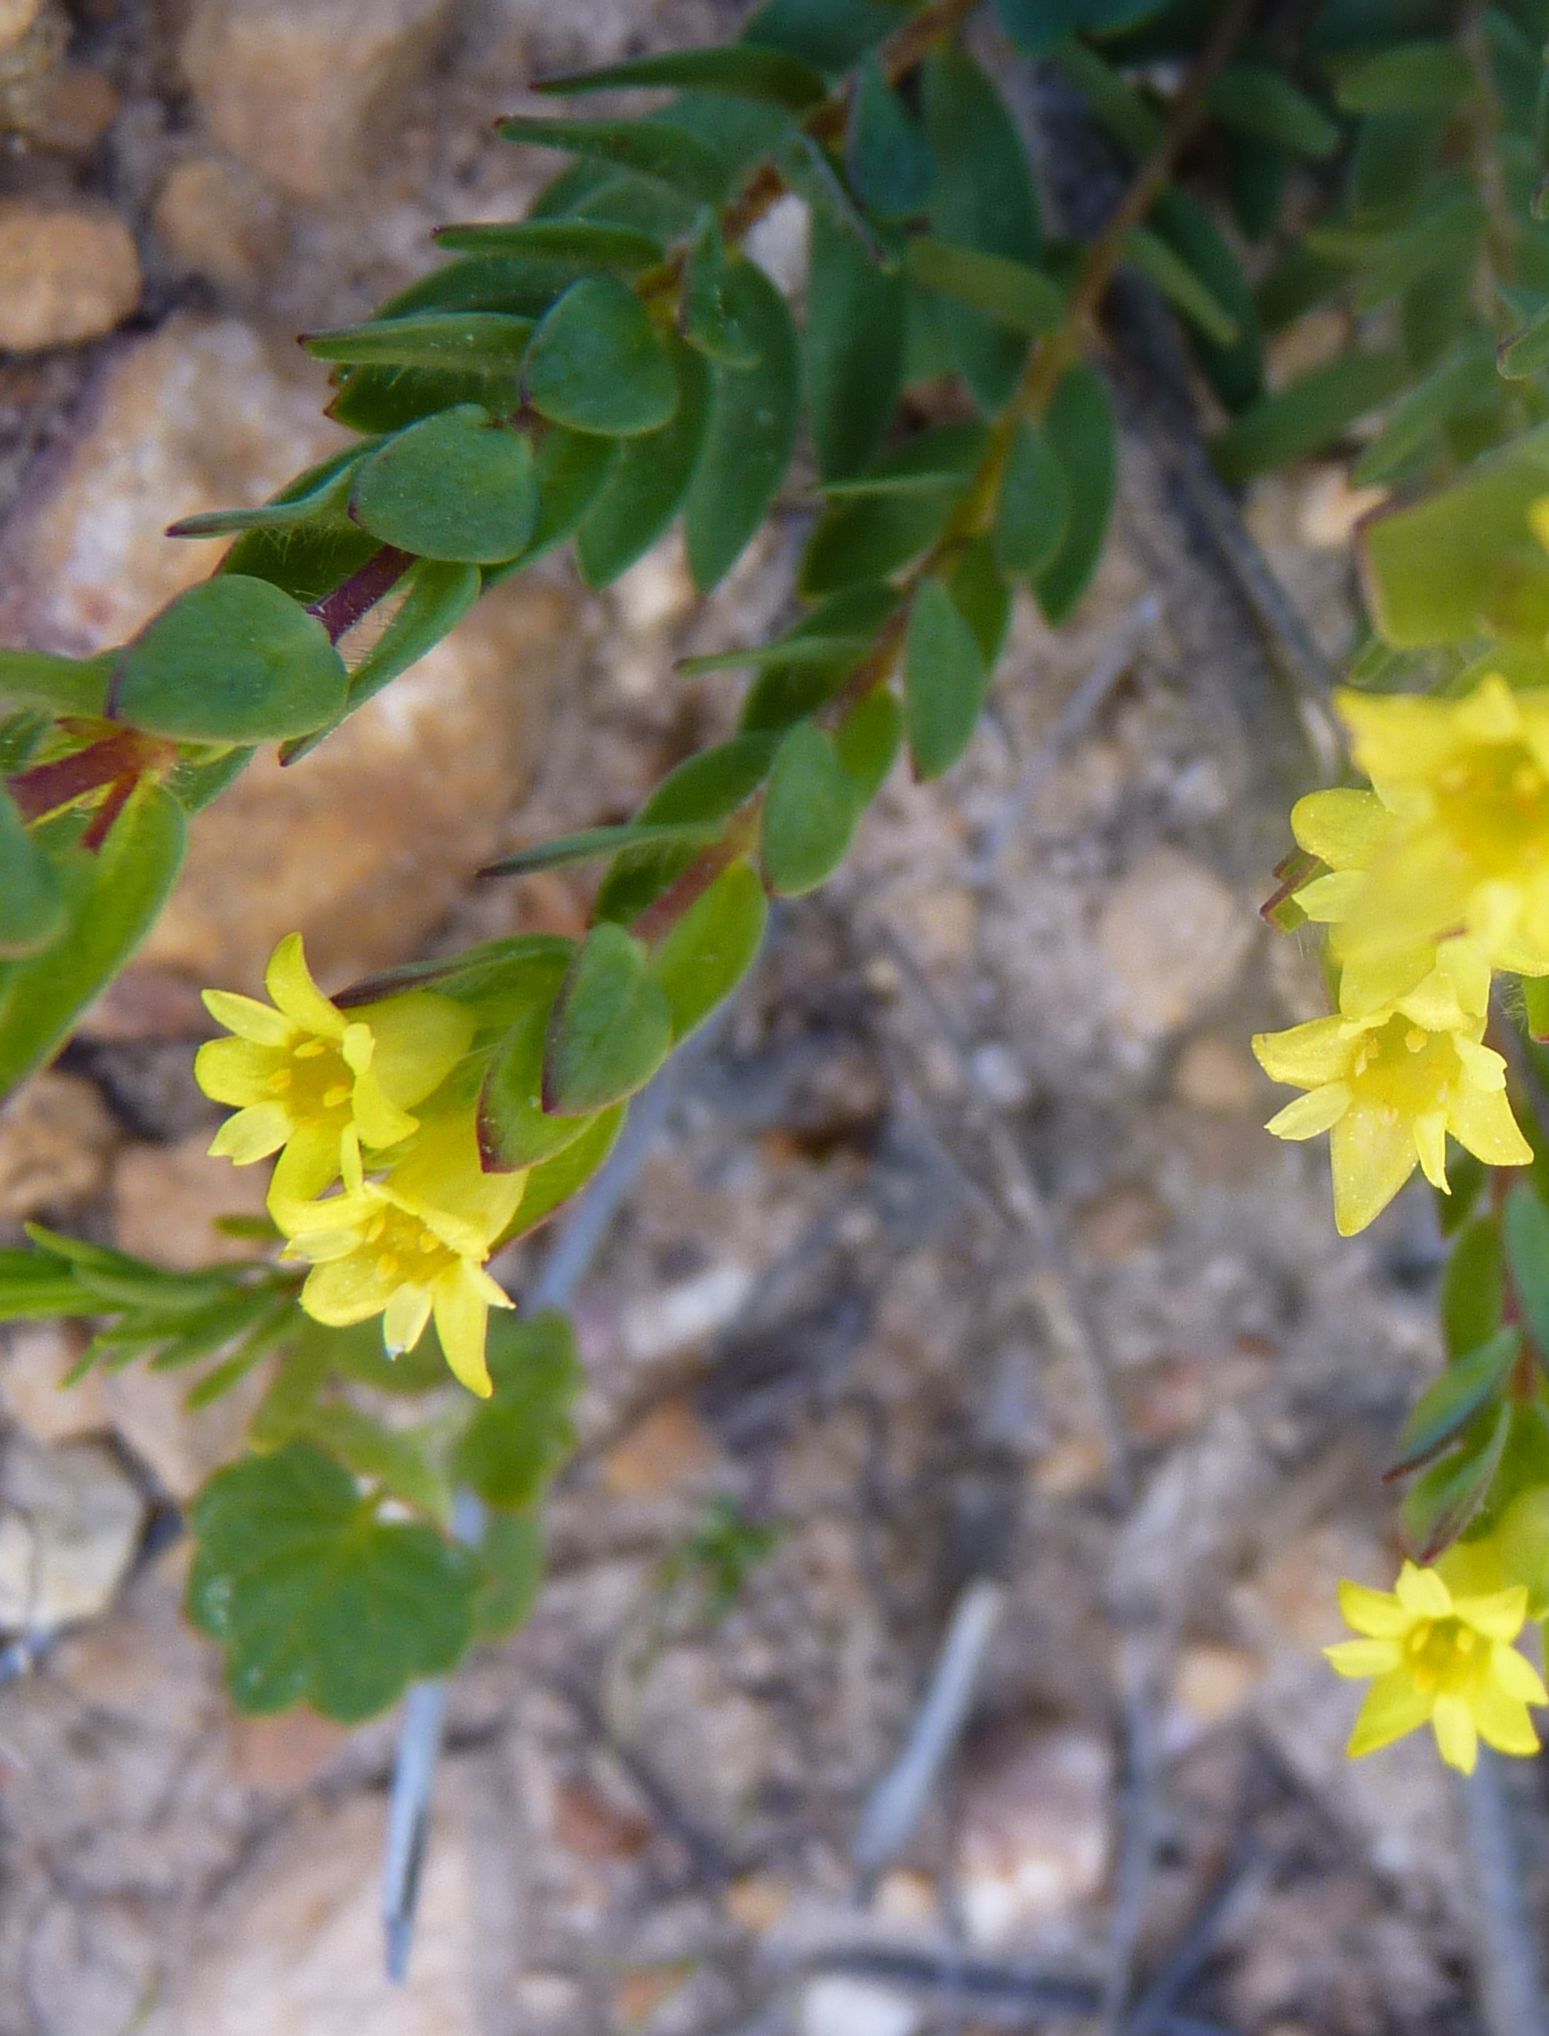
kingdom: Plantae
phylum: Tracheophyta
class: Magnoliopsida
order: Malvales
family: Thymelaeaceae
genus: Gnidia
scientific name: Gnidia juniperifolia
